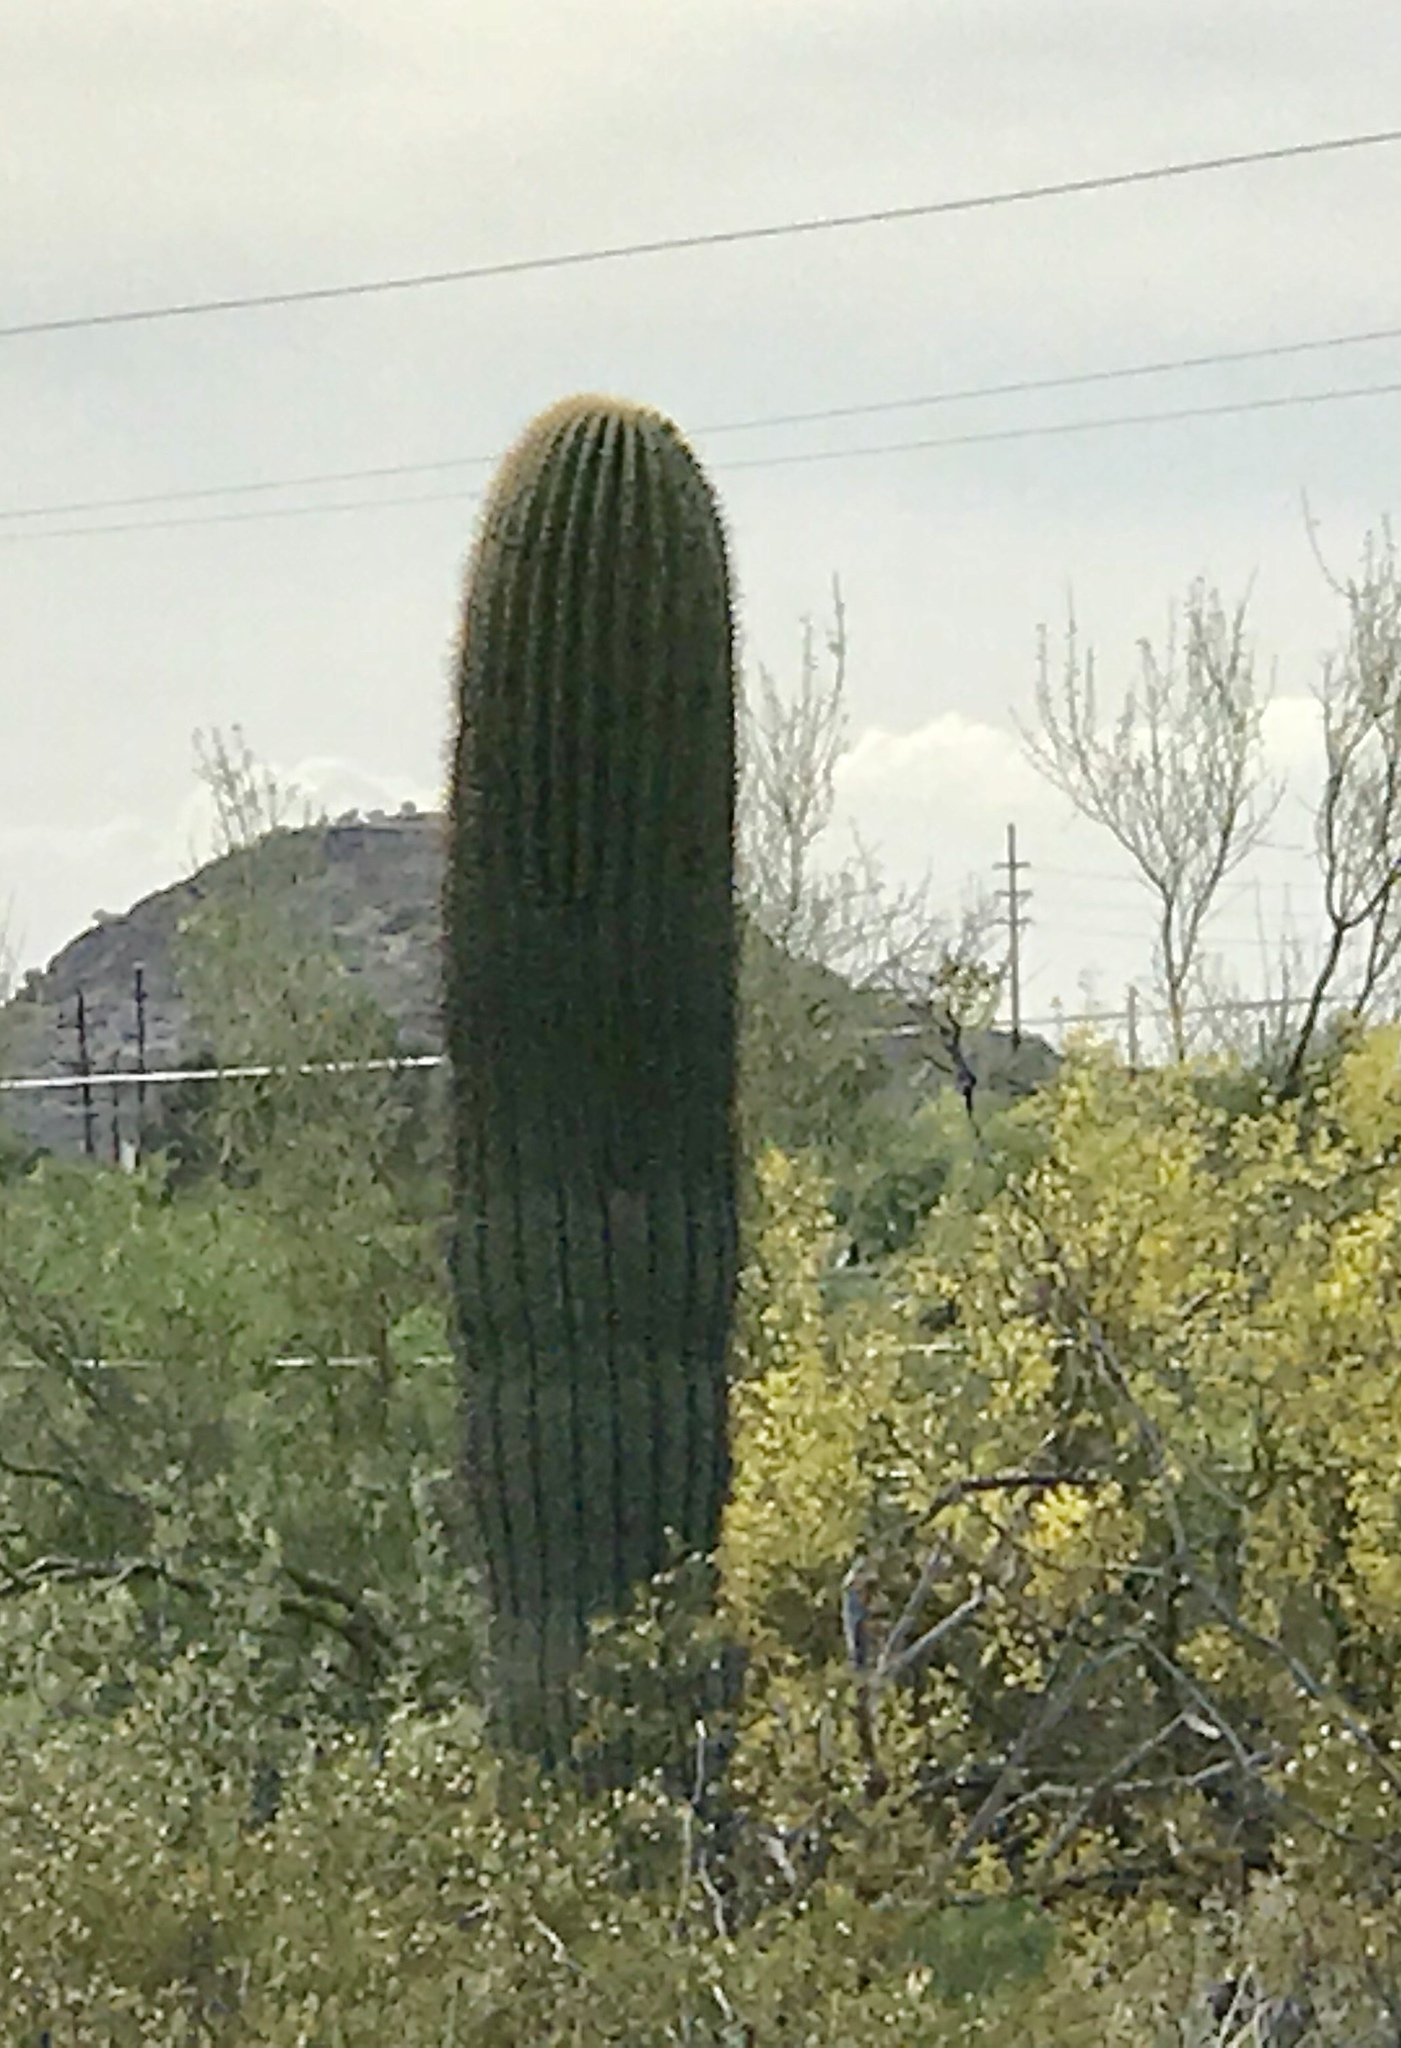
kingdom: Plantae
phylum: Tracheophyta
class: Magnoliopsida
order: Caryophyllales
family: Cactaceae
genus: Carnegiea
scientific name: Carnegiea gigantea
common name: Saguaro
